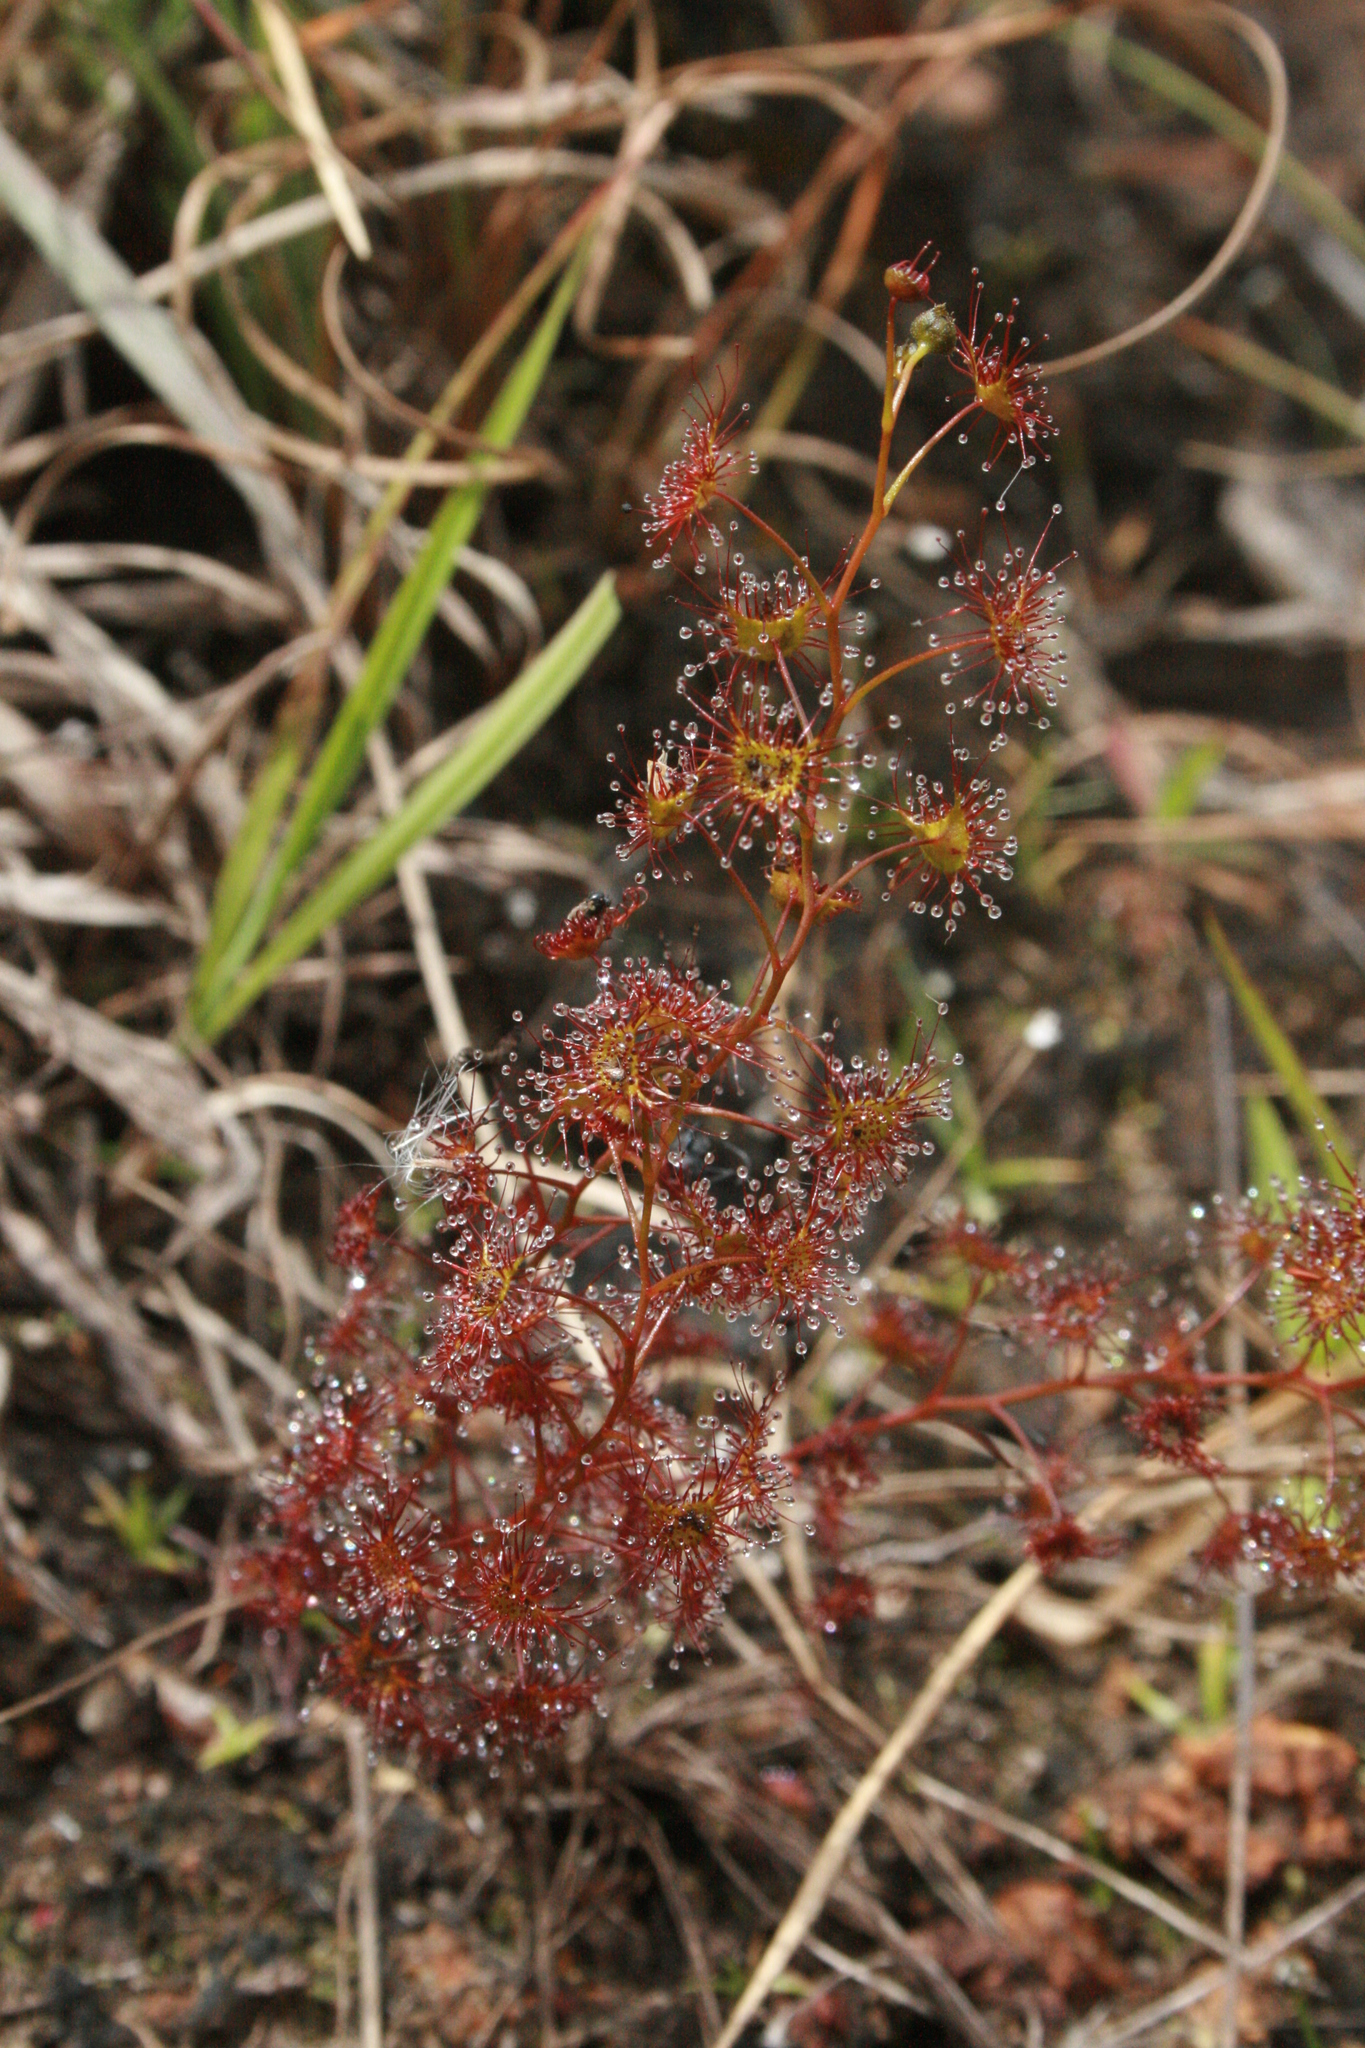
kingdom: Plantae
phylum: Tracheophyta
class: Magnoliopsida
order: Caryophyllales
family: Droseraceae
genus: Drosera
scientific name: Drosera peltata
